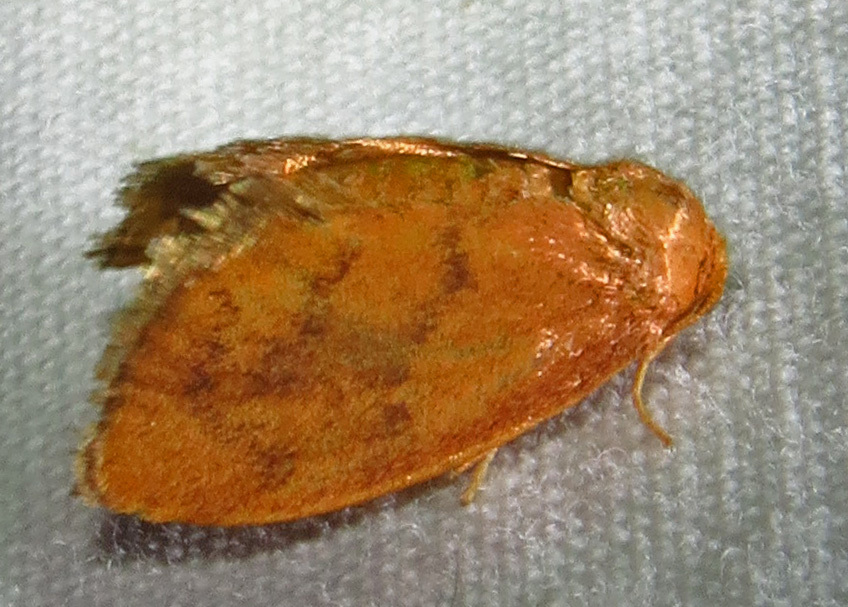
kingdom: Animalia
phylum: Arthropoda
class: Insecta
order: Lepidoptera
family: Limacodidae
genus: Heterogenea
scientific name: Heterogenea shurtleffi
